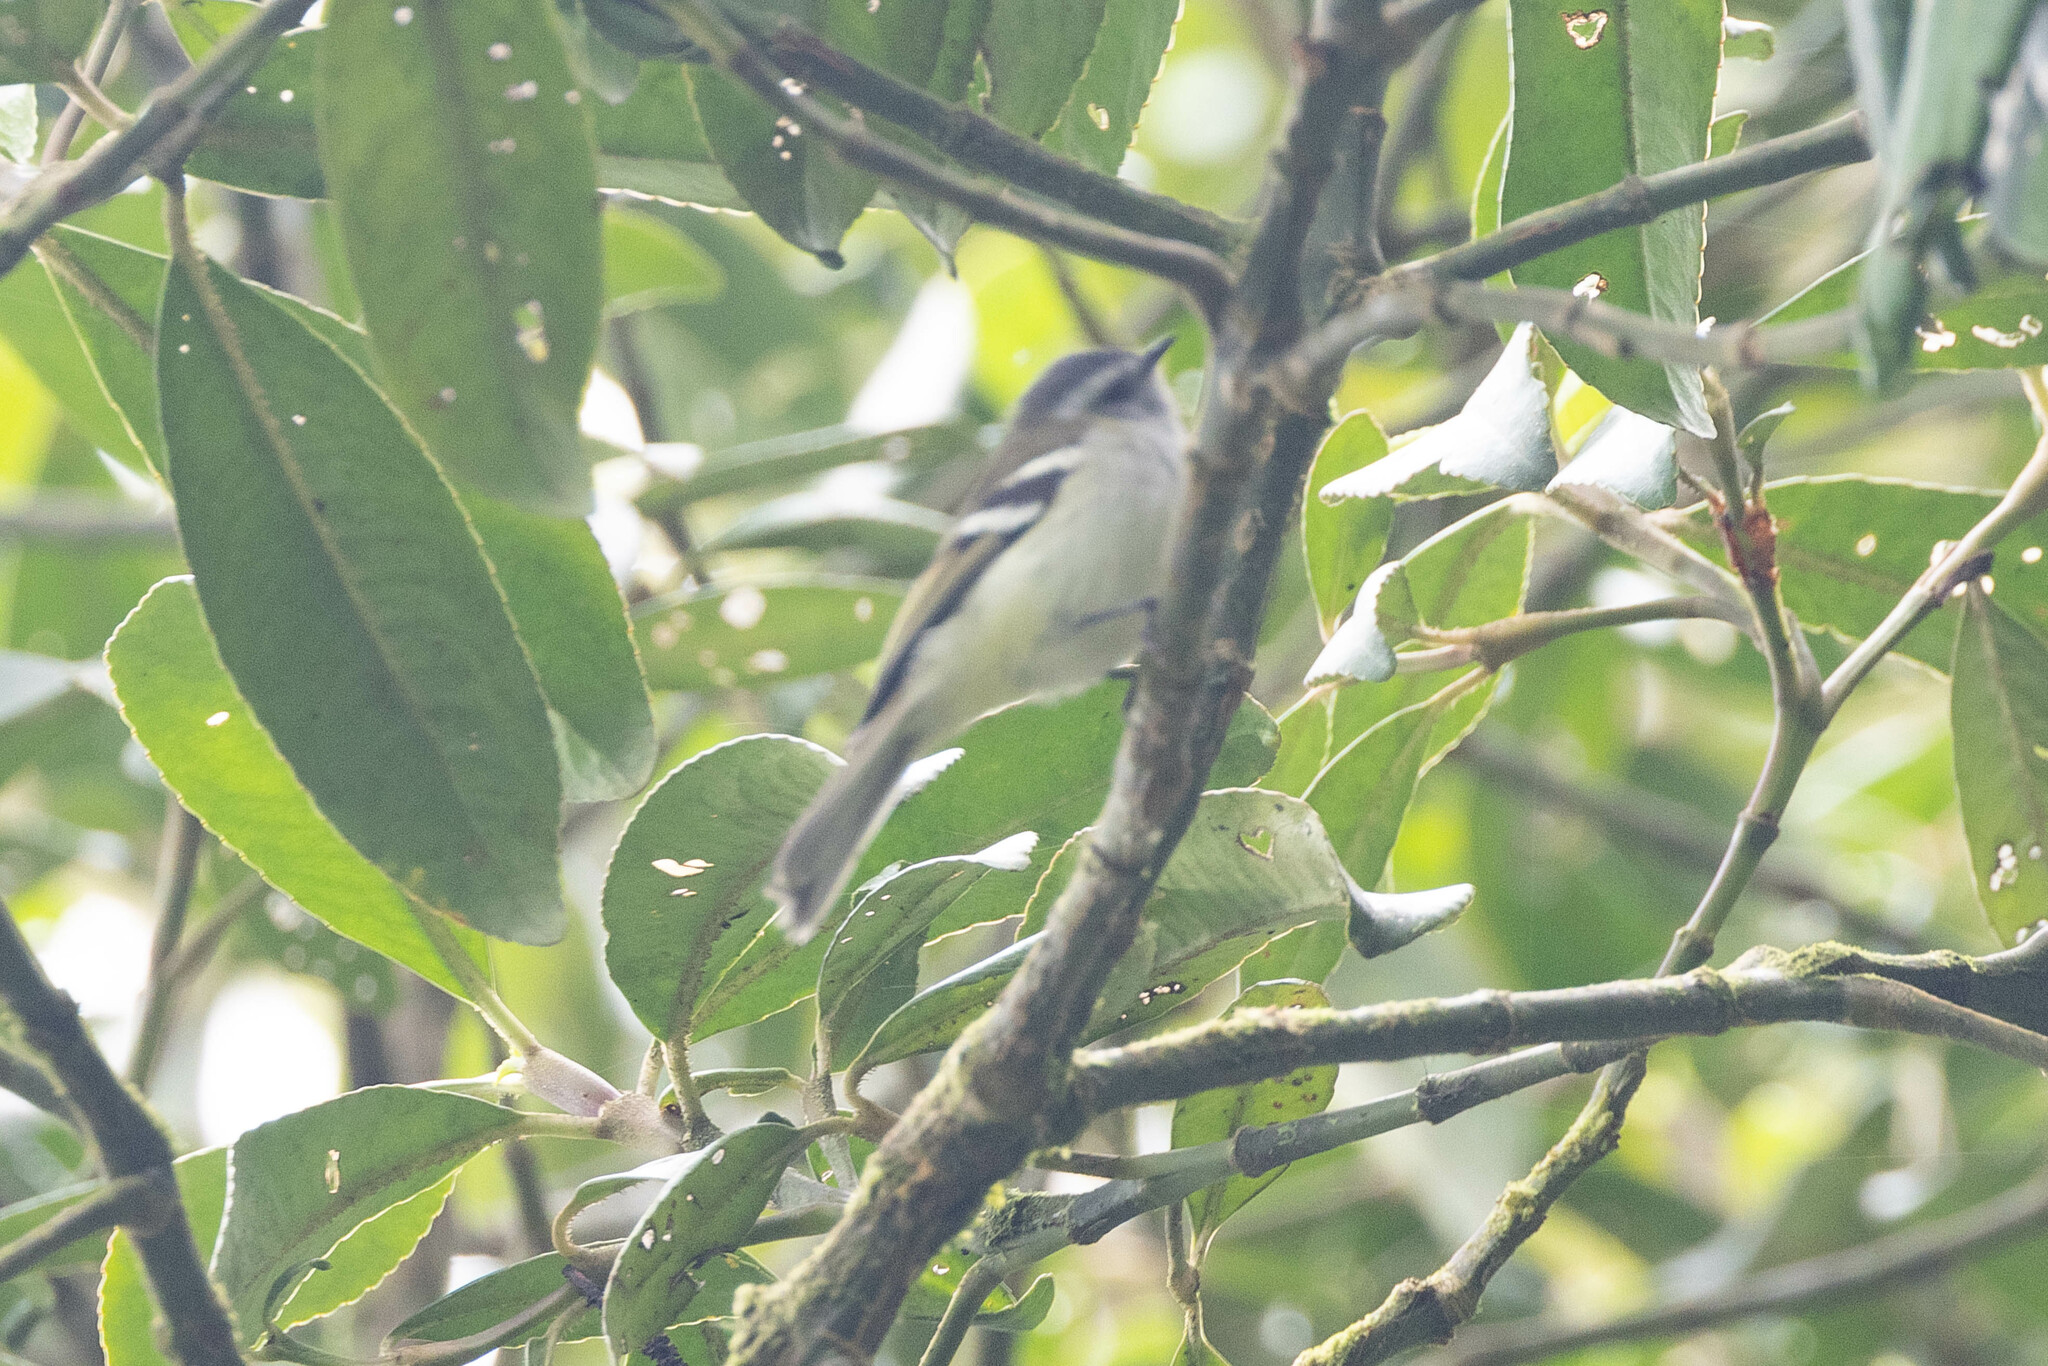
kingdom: Animalia
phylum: Chordata
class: Aves
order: Passeriformes
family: Tyrannidae
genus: Mecocerculus
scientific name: Mecocerculus stictopterus
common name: White-banded tyrannulet
